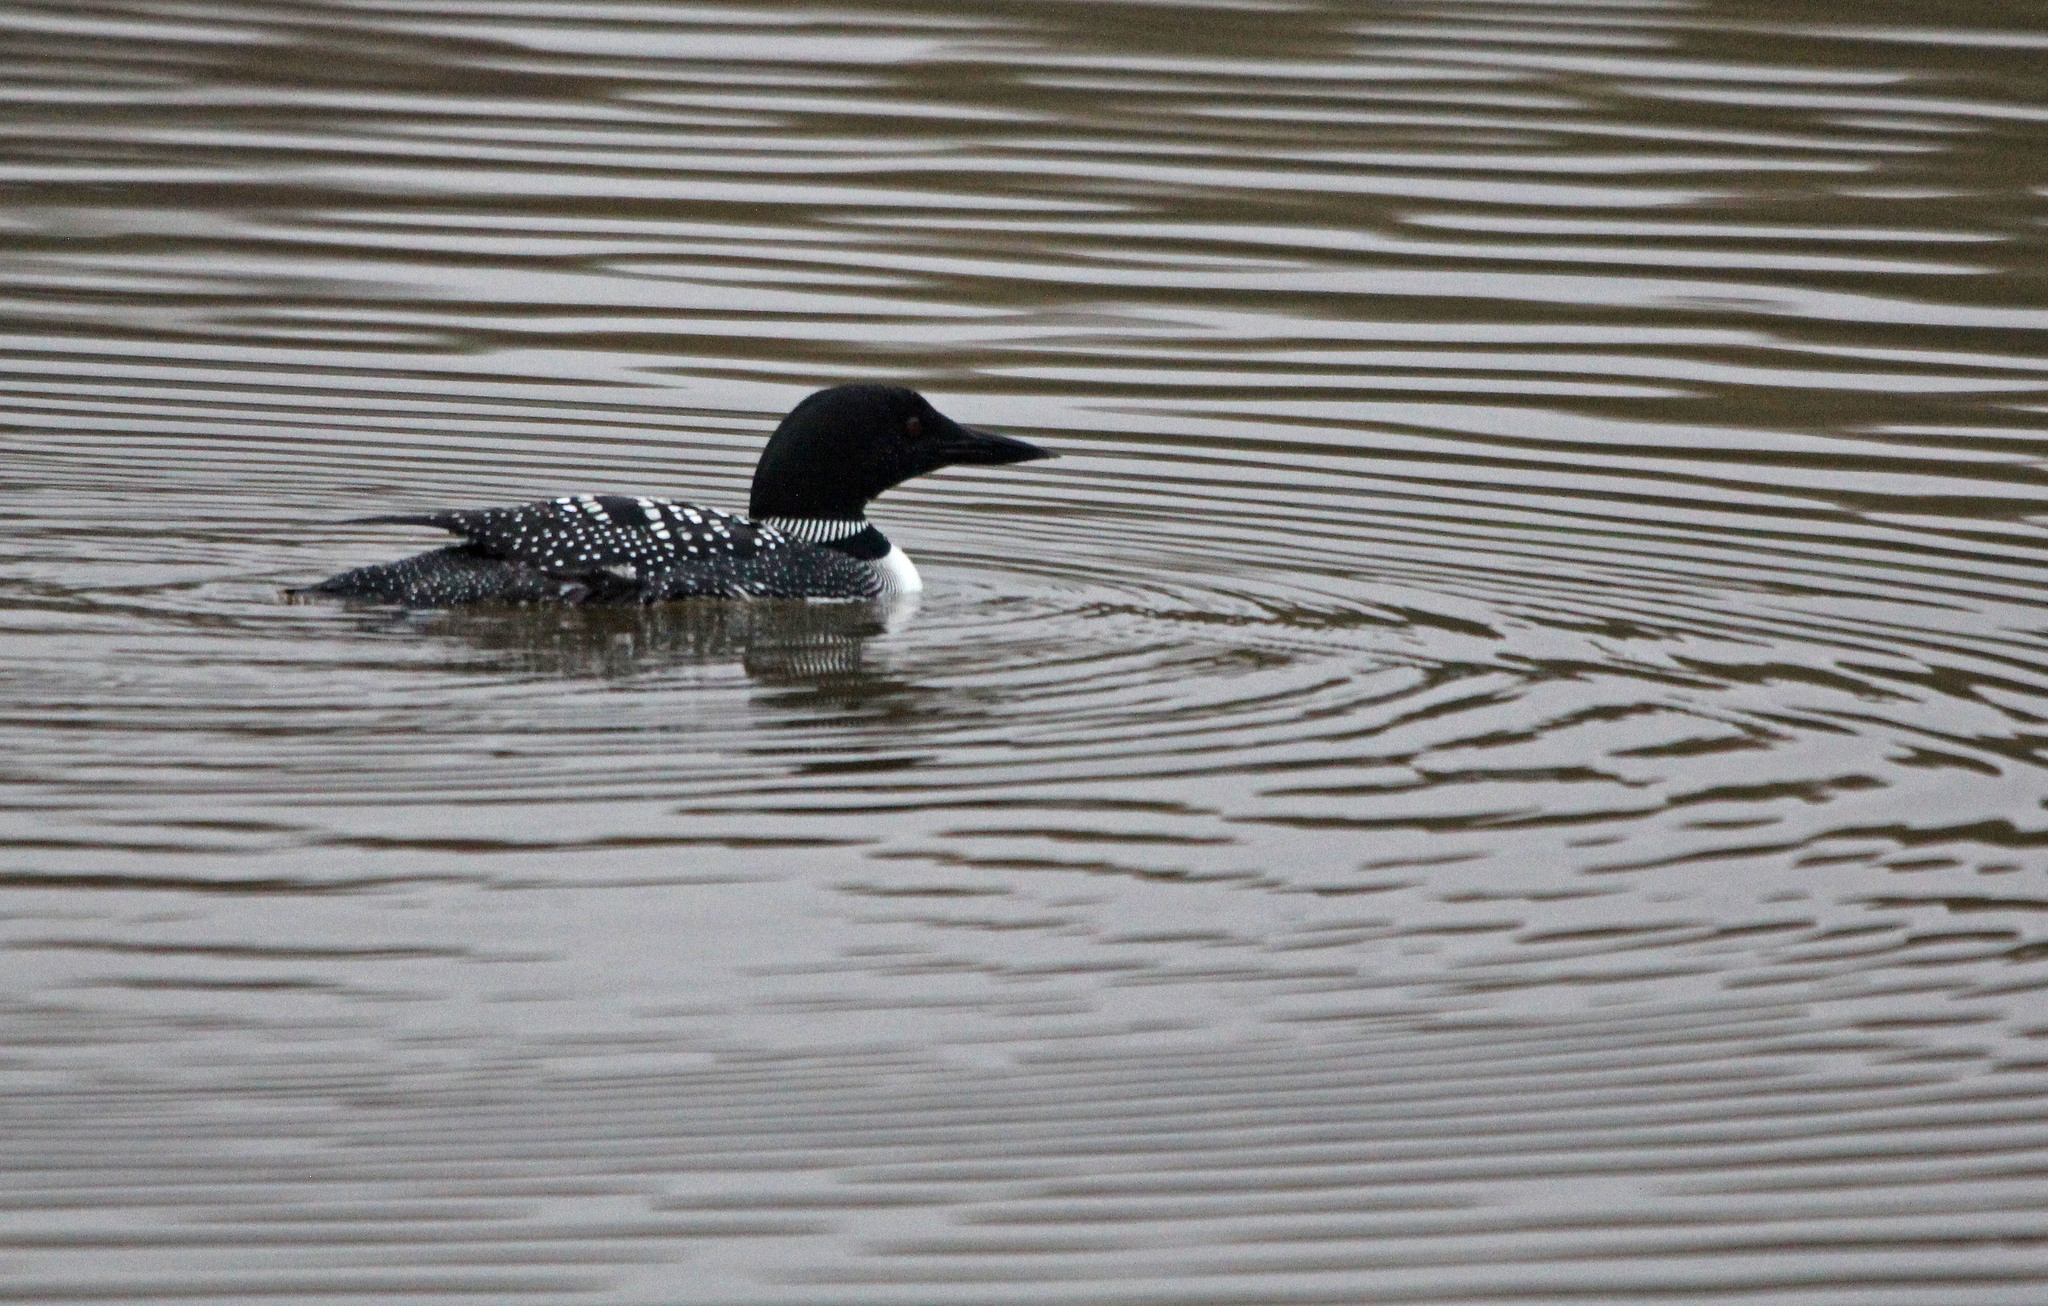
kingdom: Animalia
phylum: Chordata
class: Aves
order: Gaviiformes
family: Gaviidae
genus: Gavia
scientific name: Gavia immer
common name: Common loon
